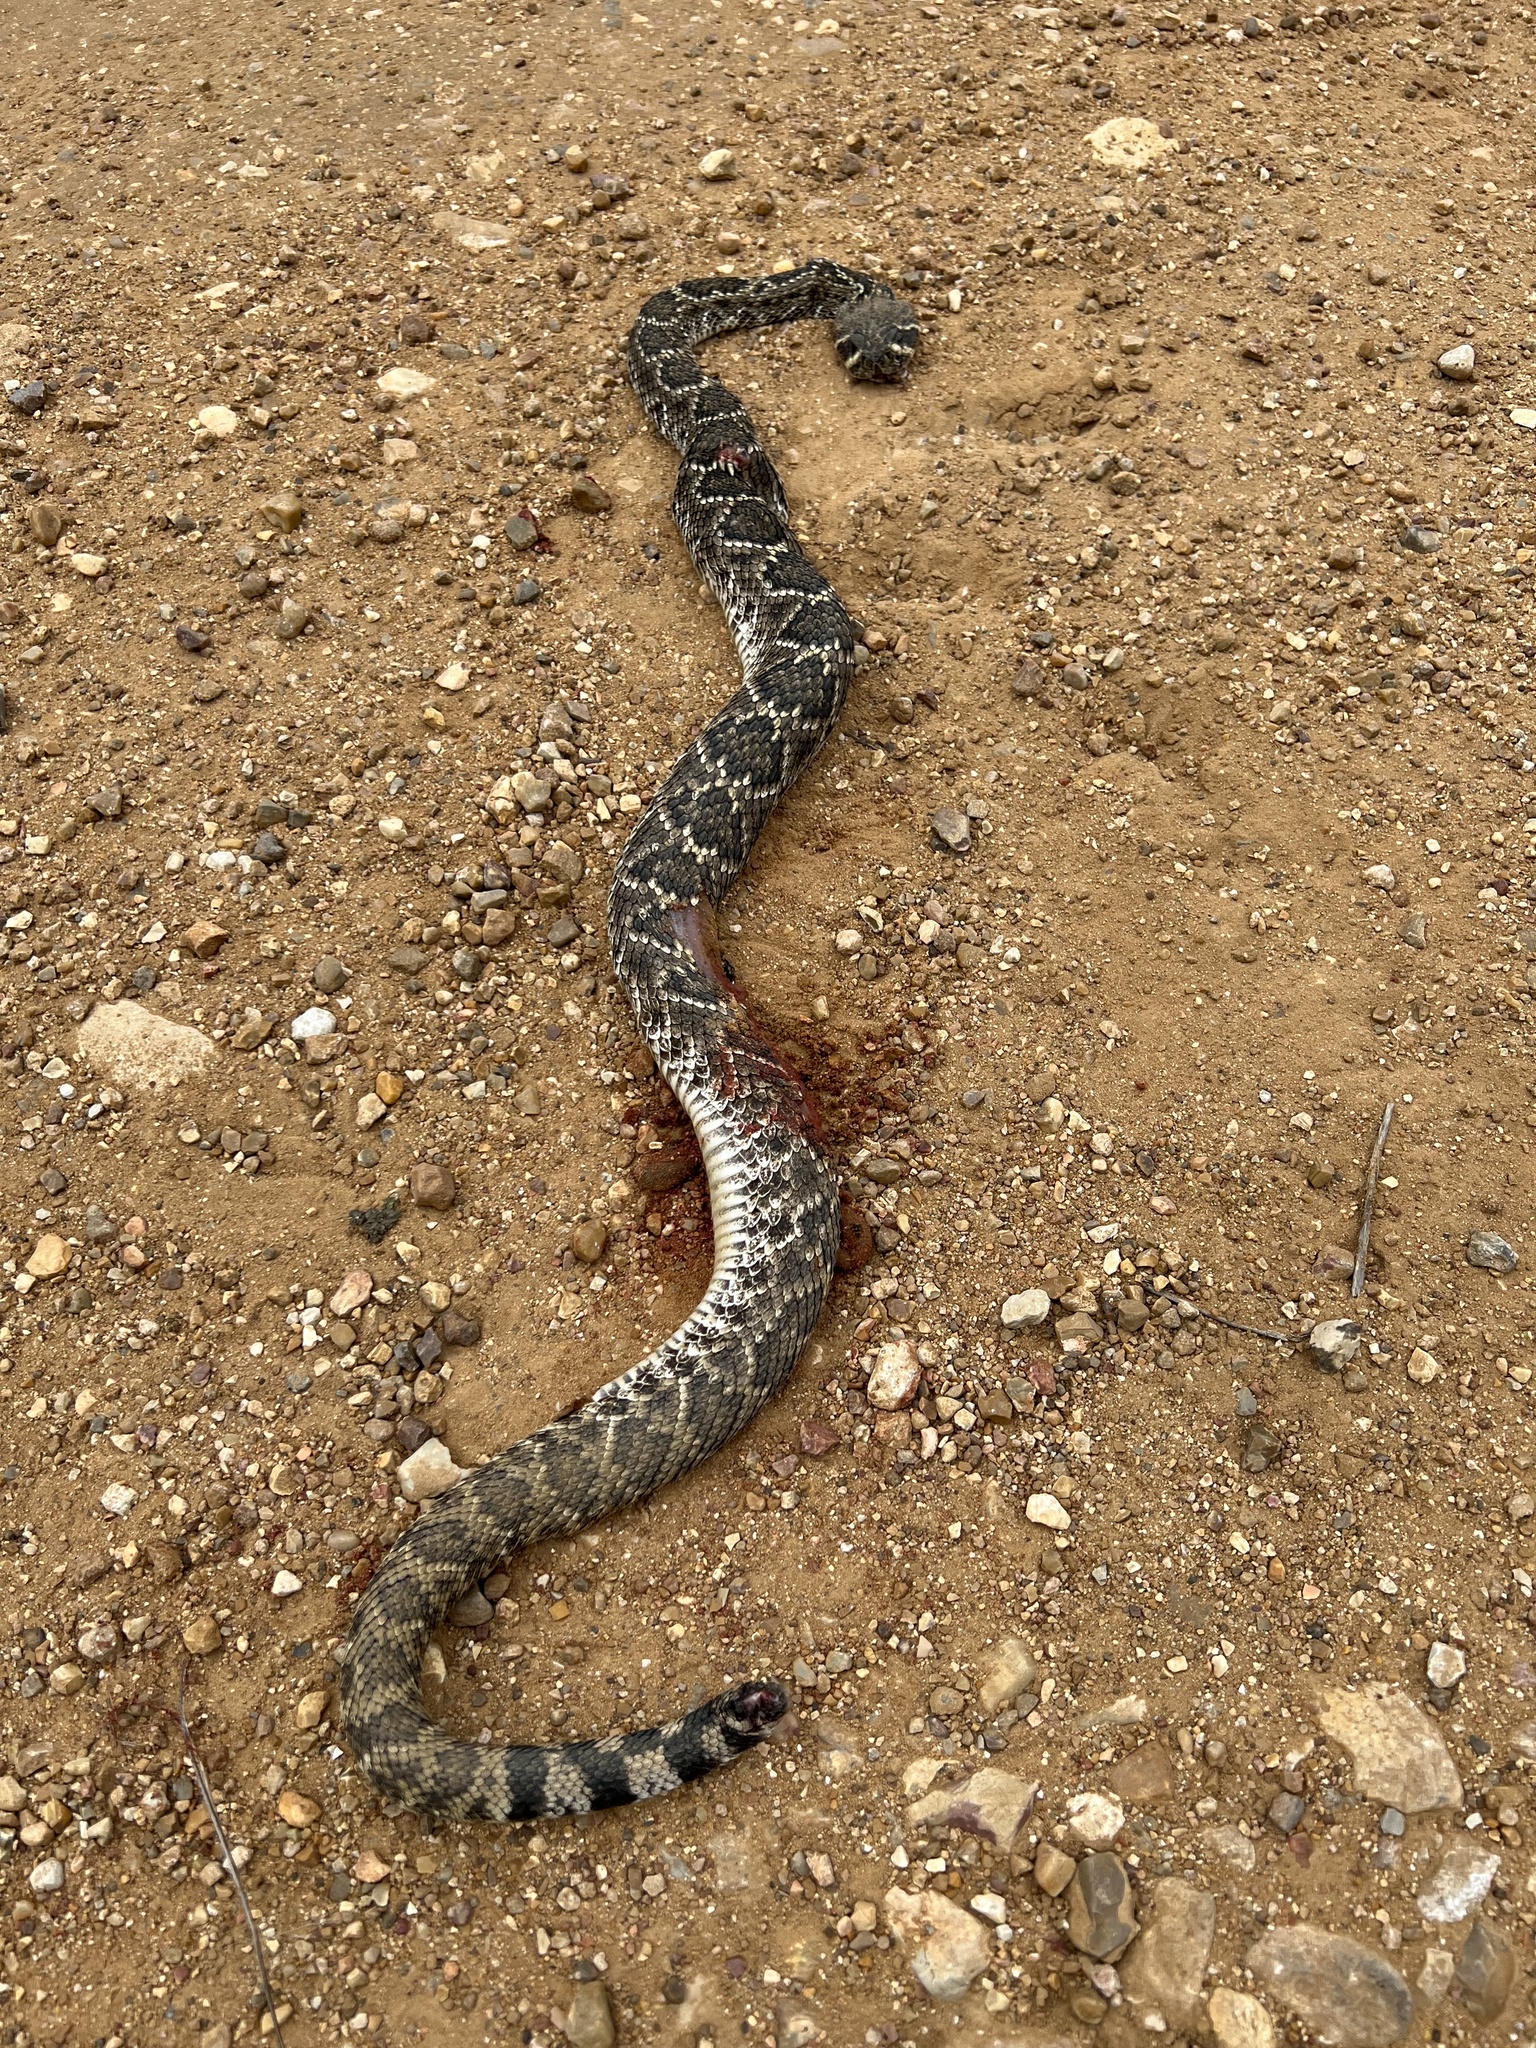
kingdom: Animalia
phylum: Chordata
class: Squamata
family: Viperidae
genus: Crotalus
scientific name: Crotalus atrox
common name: Western diamond-backed rattlesnake
